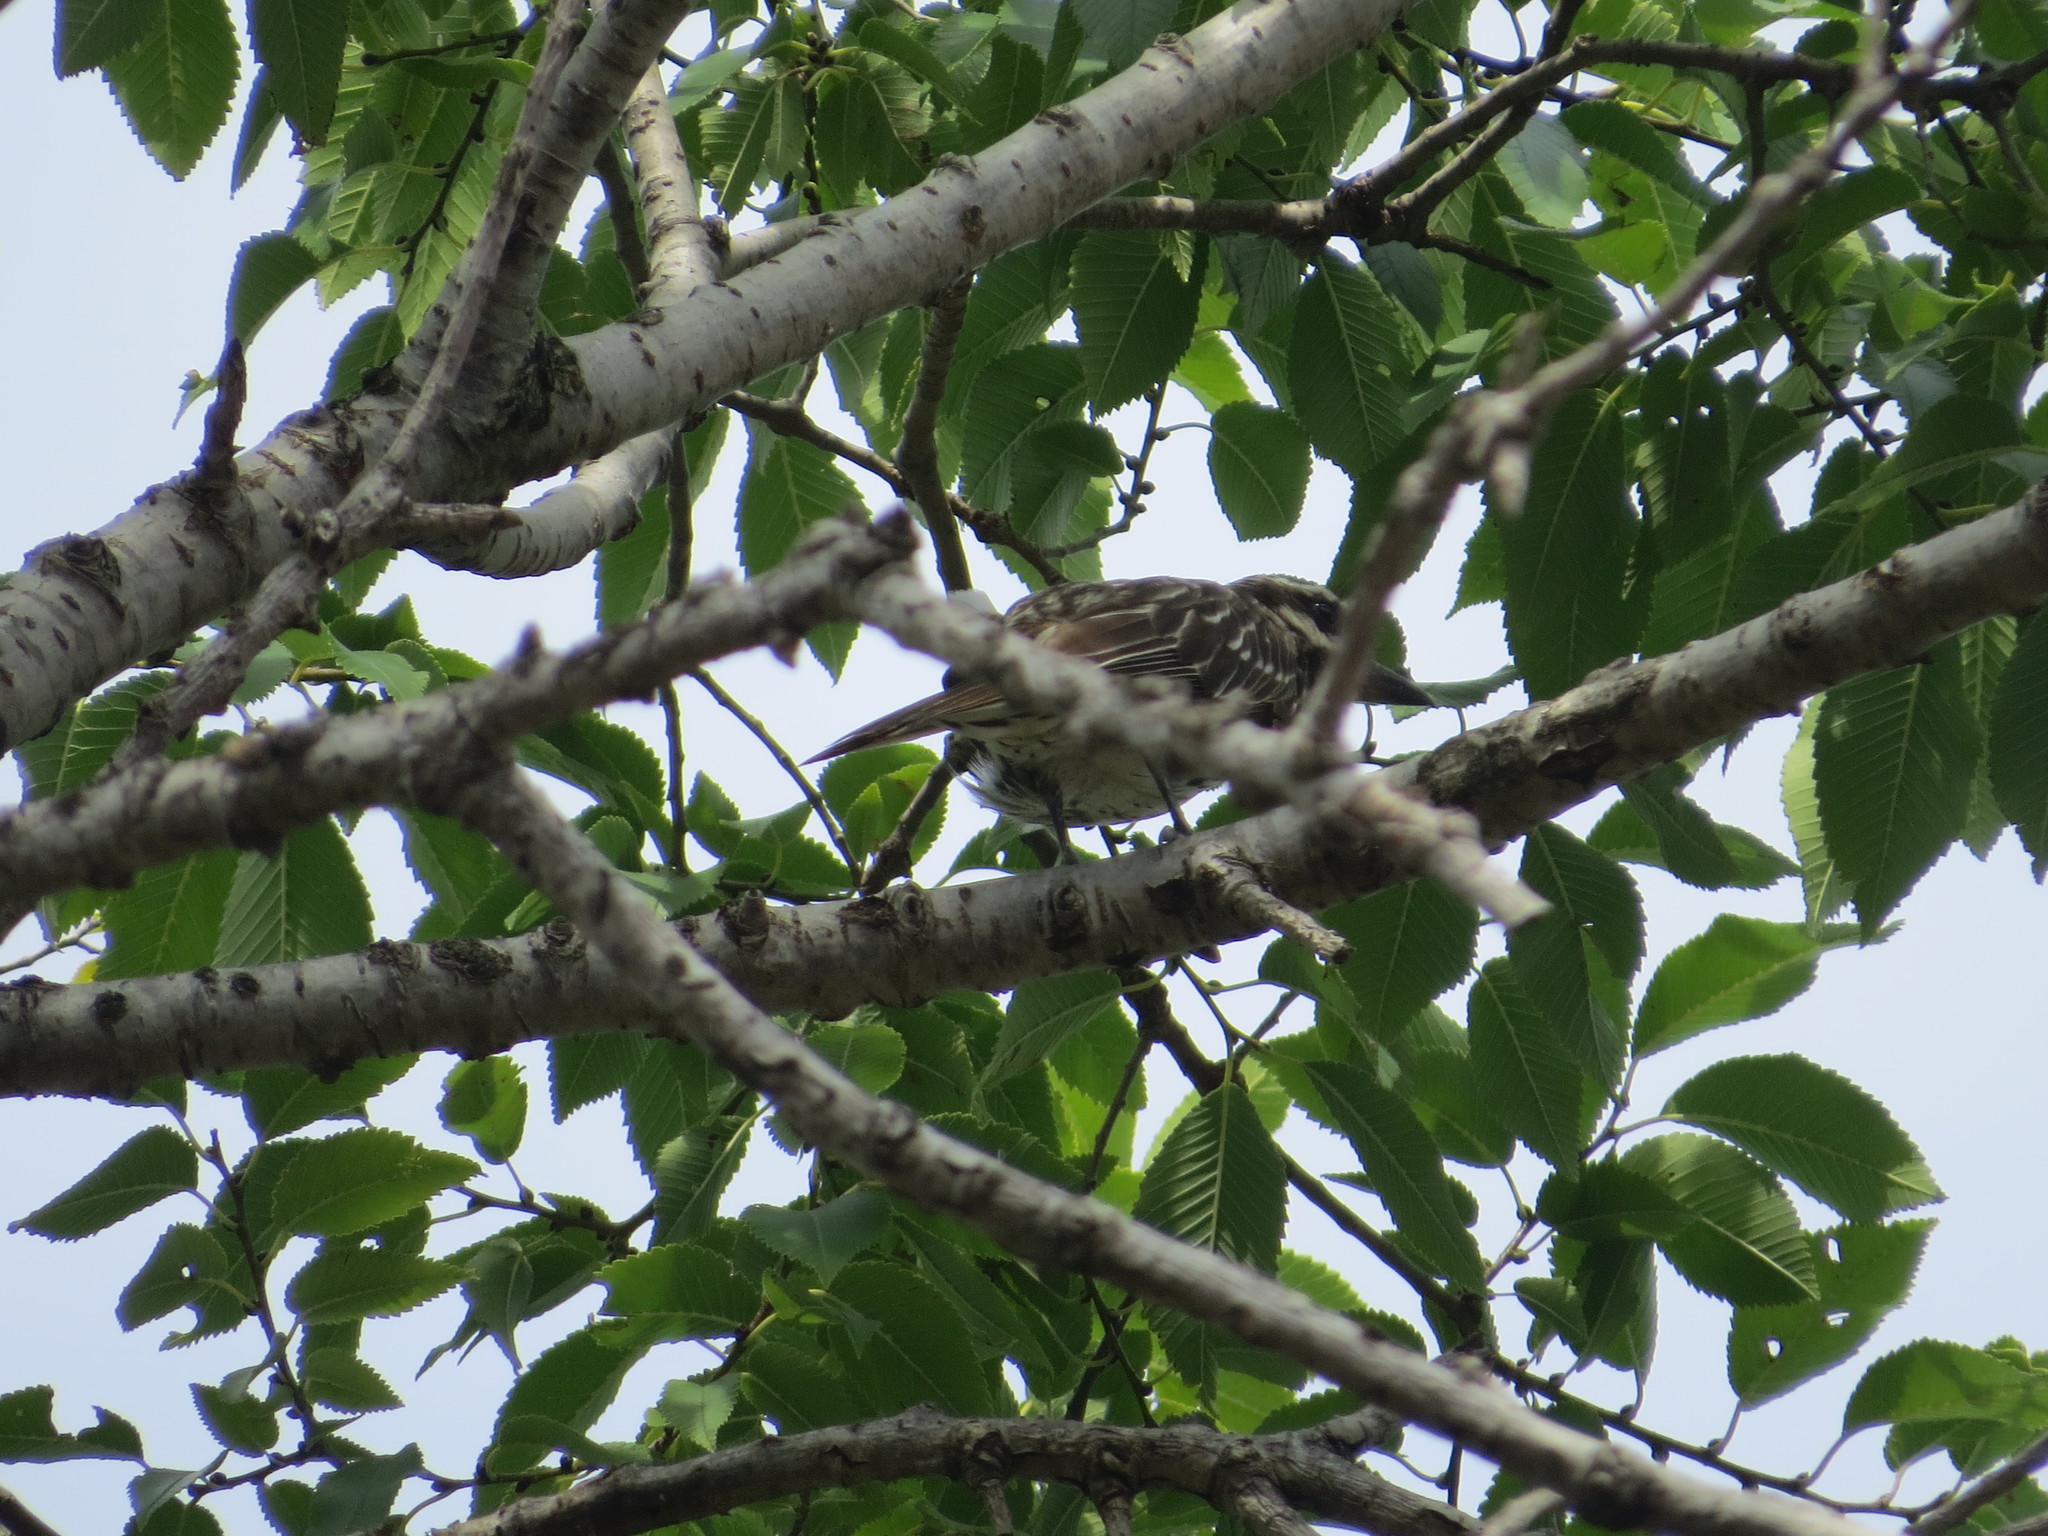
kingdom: Animalia
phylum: Chordata
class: Aves
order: Passeriformes
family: Tyrannidae
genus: Myiodynastes
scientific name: Myiodynastes maculatus
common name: Streaked flycatcher
